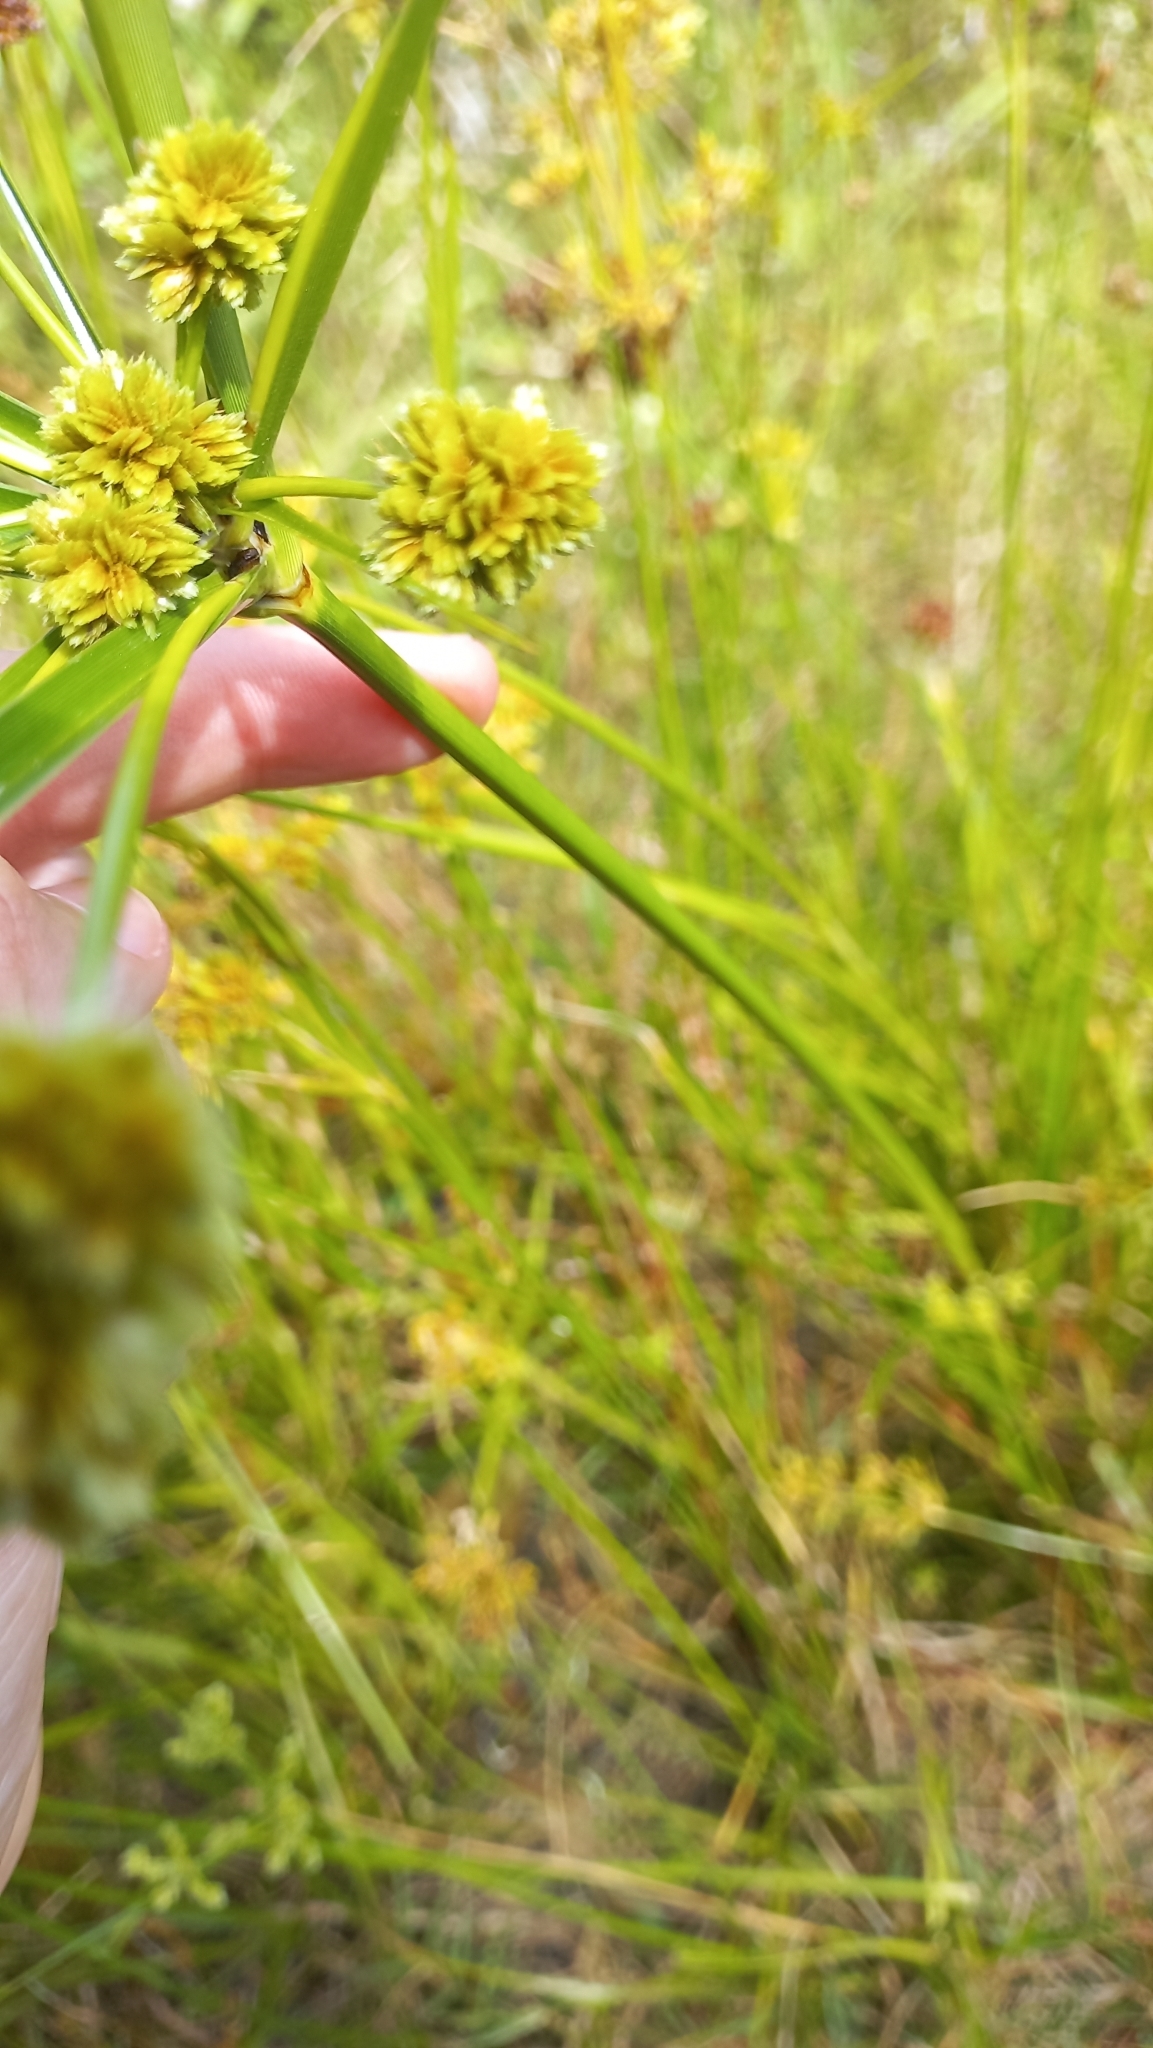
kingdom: Plantae
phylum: Tracheophyta
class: Liliopsida
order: Poales
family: Cyperaceae
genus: Cyperus
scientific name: Cyperus surinamensis
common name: Tropical flat sedge
